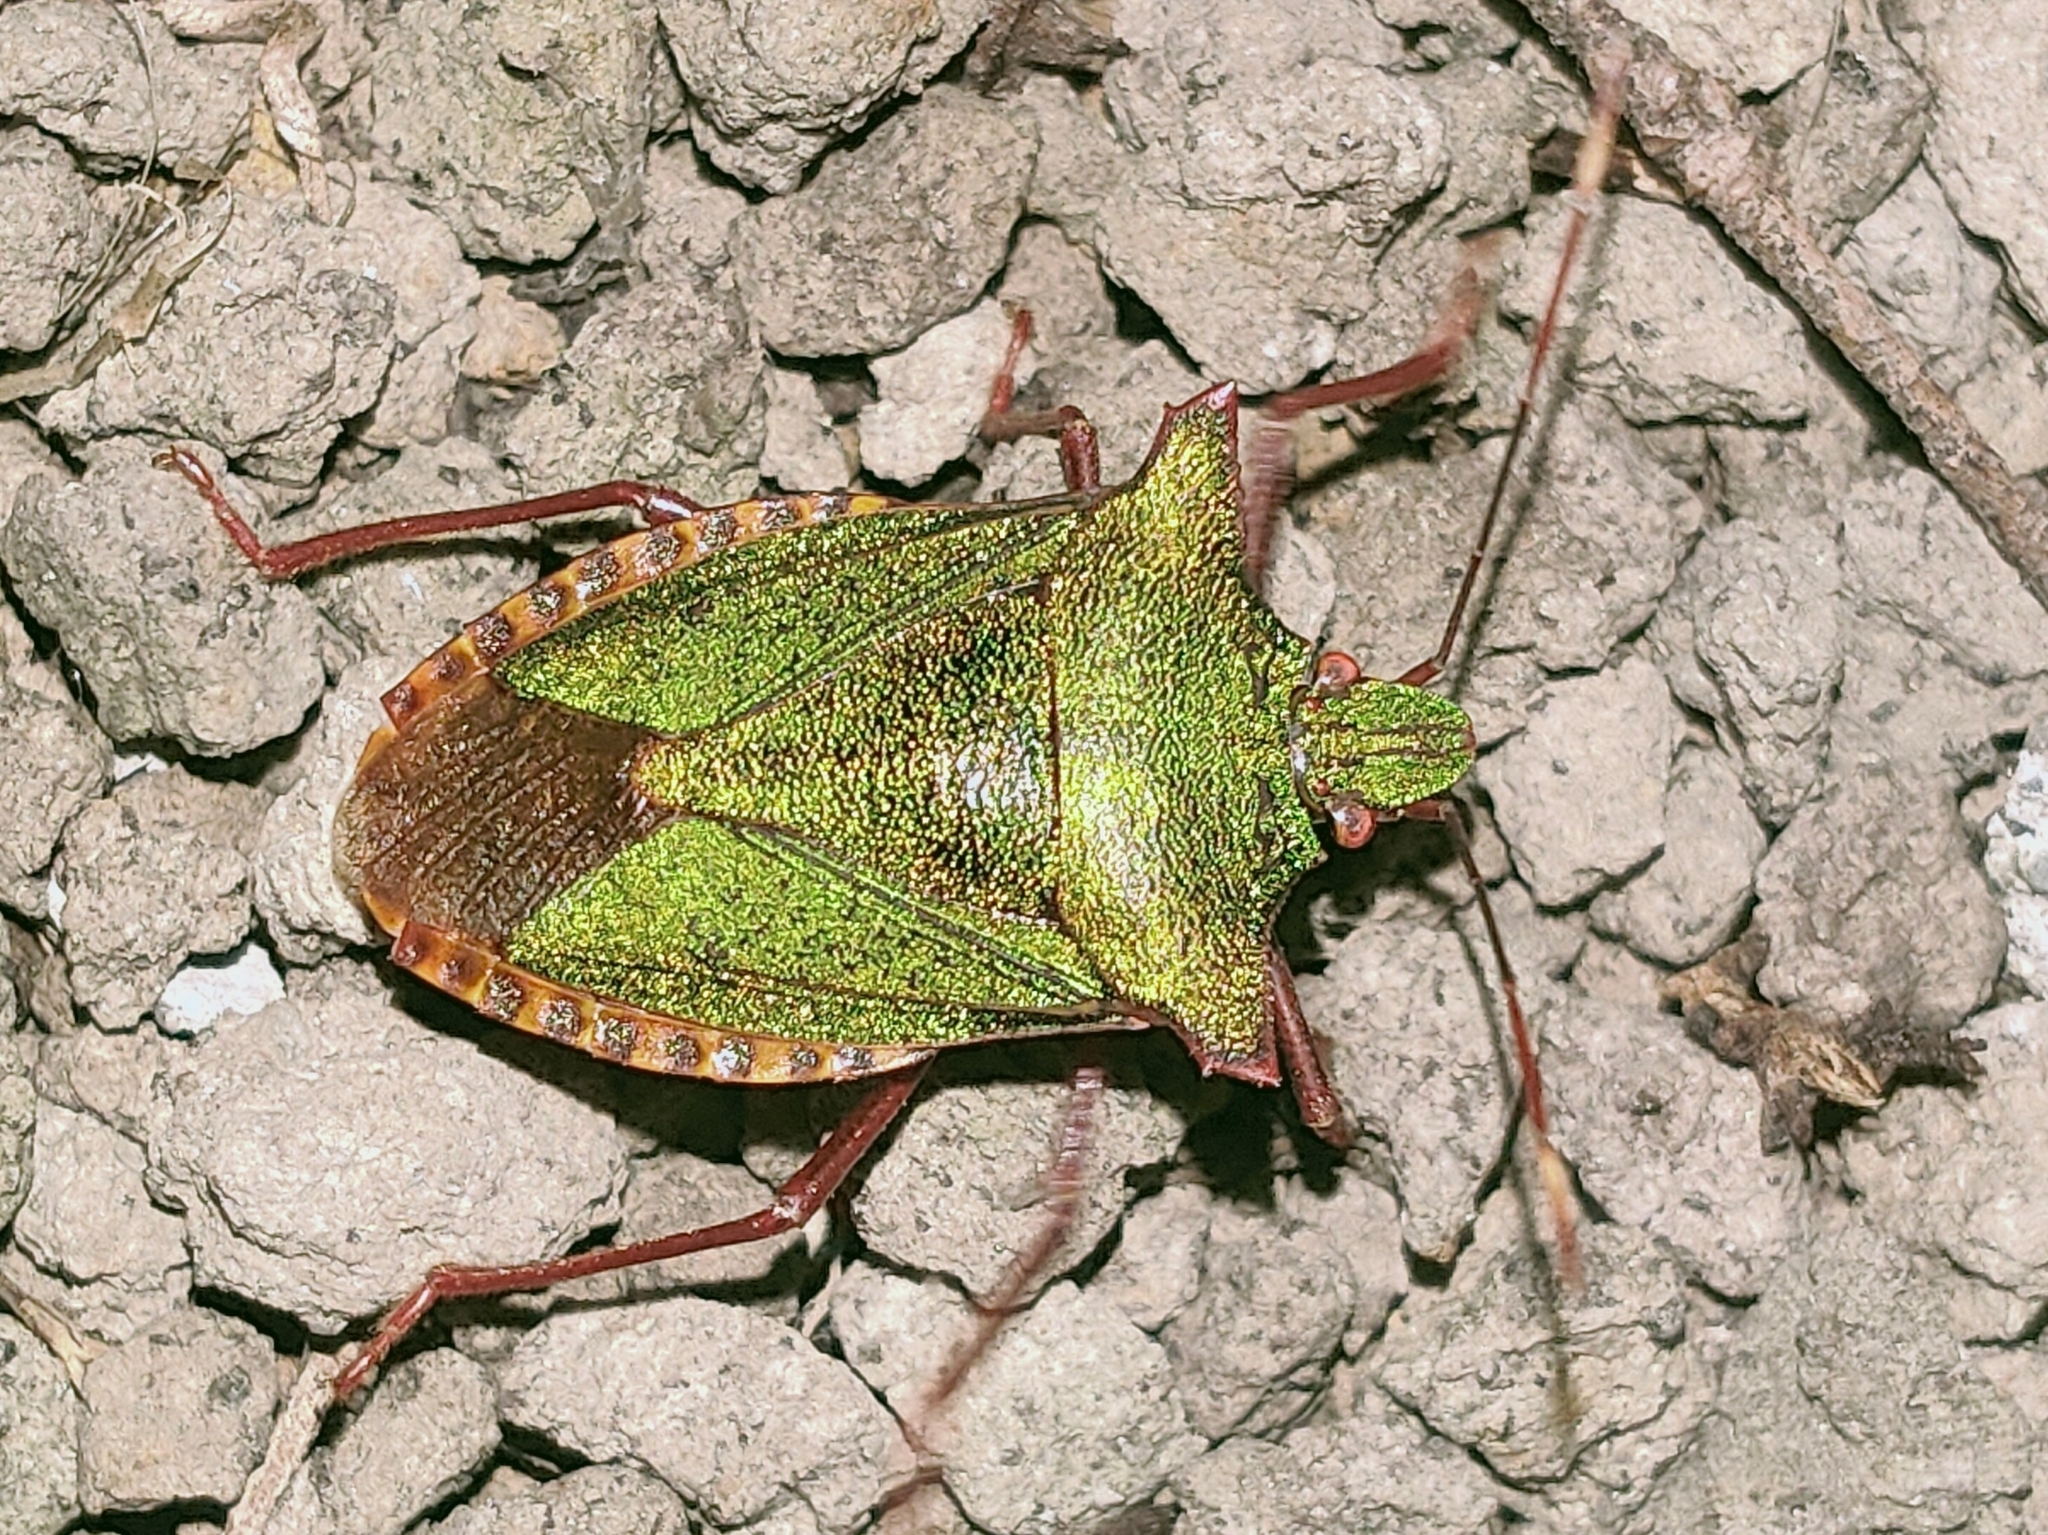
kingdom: Animalia
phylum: Arthropoda
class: Insecta
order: Hemiptera
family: Pentatomidae
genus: Pentatoma
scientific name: Pentatoma japonica
